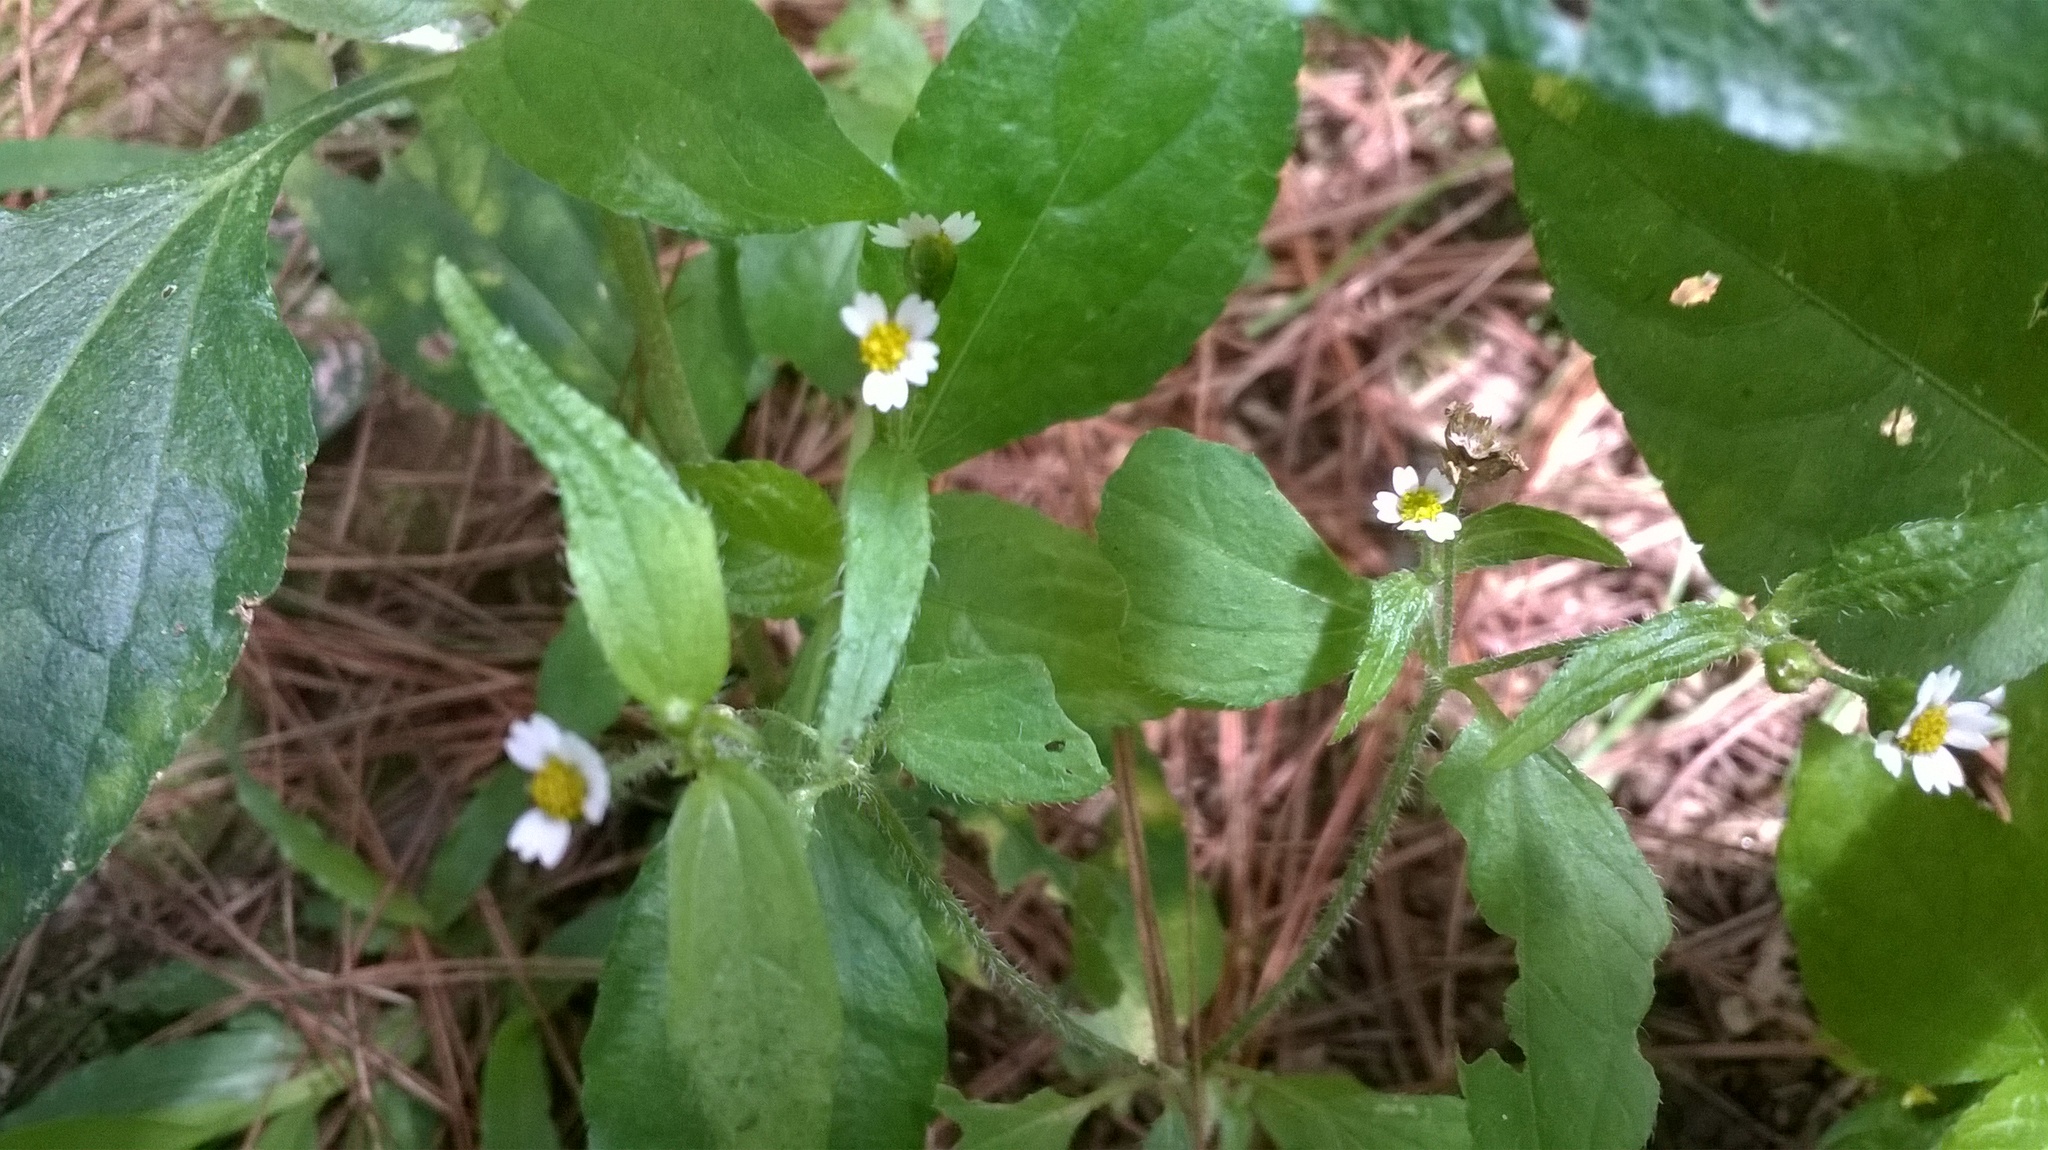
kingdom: Plantae
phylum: Tracheophyta
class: Magnoliopsida
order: Asterales
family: Asteraceae
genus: Galinsoga
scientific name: Galinsoga quadriradiata
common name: Shaggy soldier
